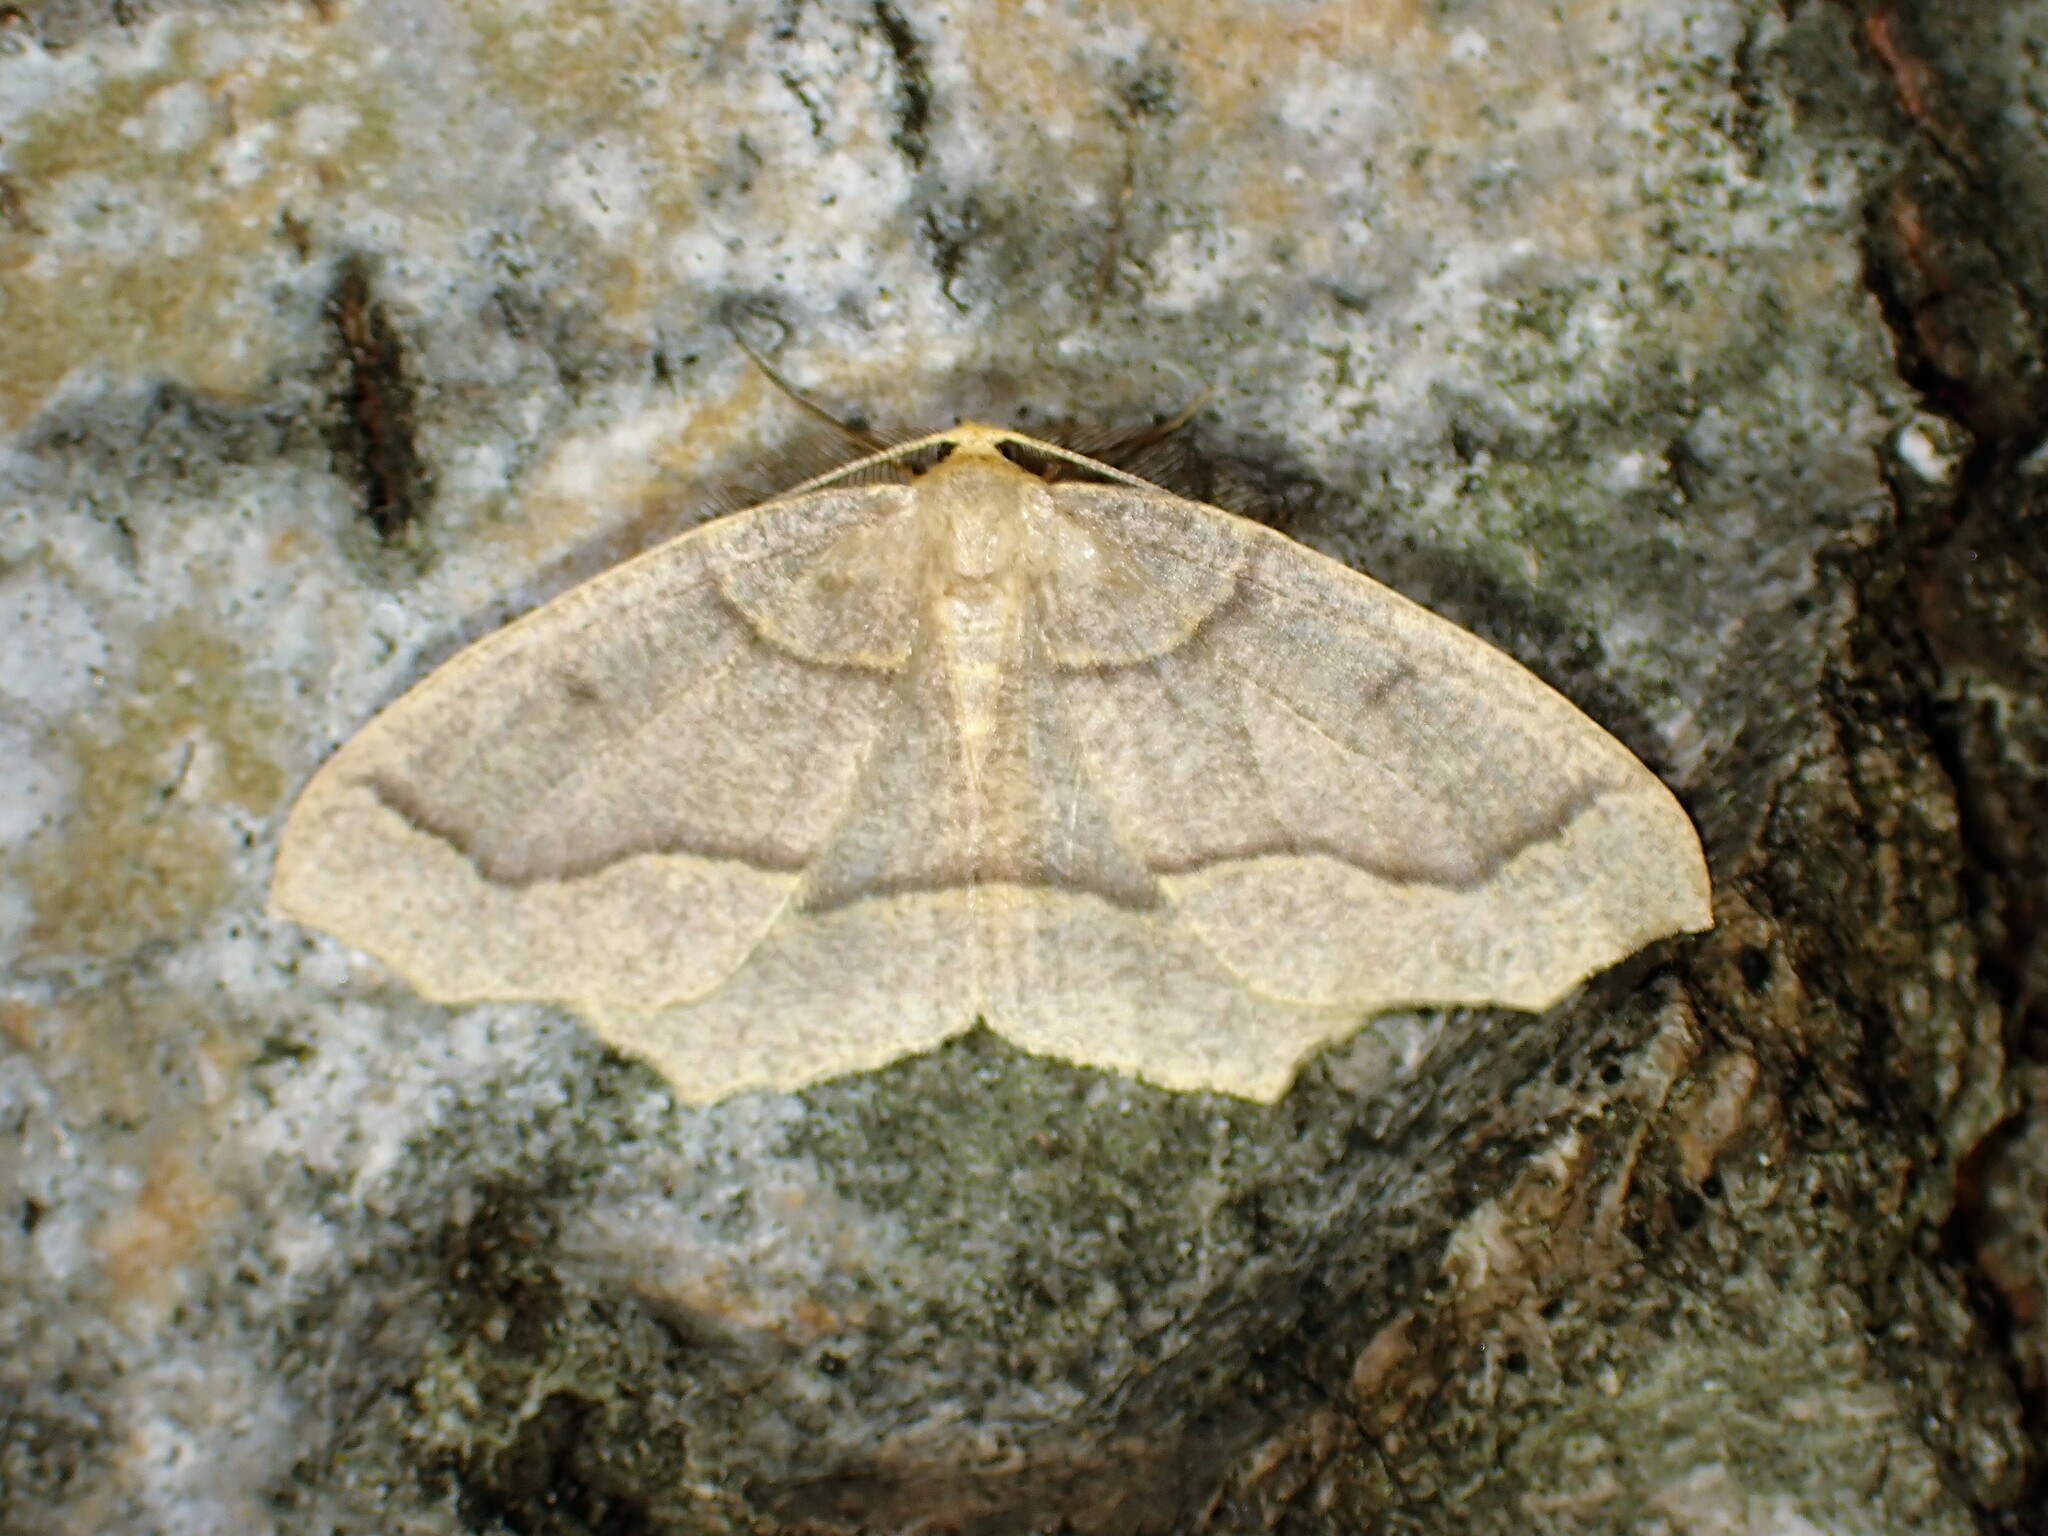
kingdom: Animalia
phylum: Arthropoda
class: Insecta
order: Lepidoptera
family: Geometridae
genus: Lambdina
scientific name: Lambdina fiscellaria
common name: Hemlock looper
